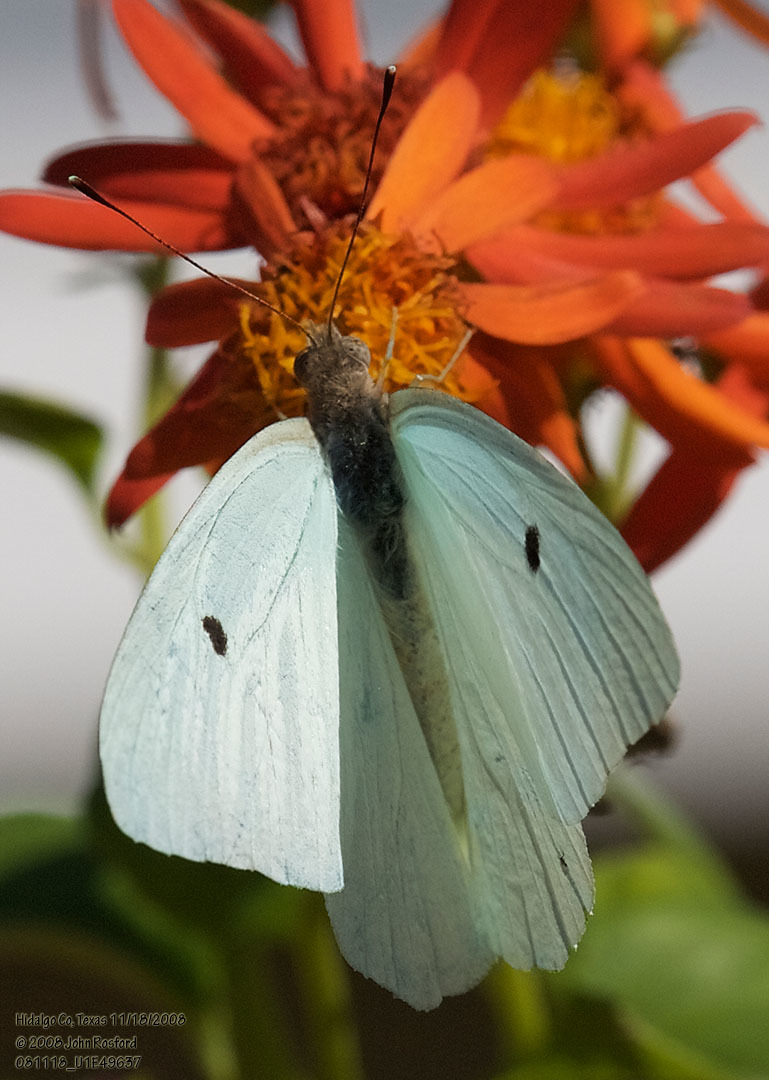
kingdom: Animalia
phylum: Arthropoda
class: Insecta
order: Lepidoptera
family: Pieridae
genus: Ganyra
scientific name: Ganyra josephina
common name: Giant white
